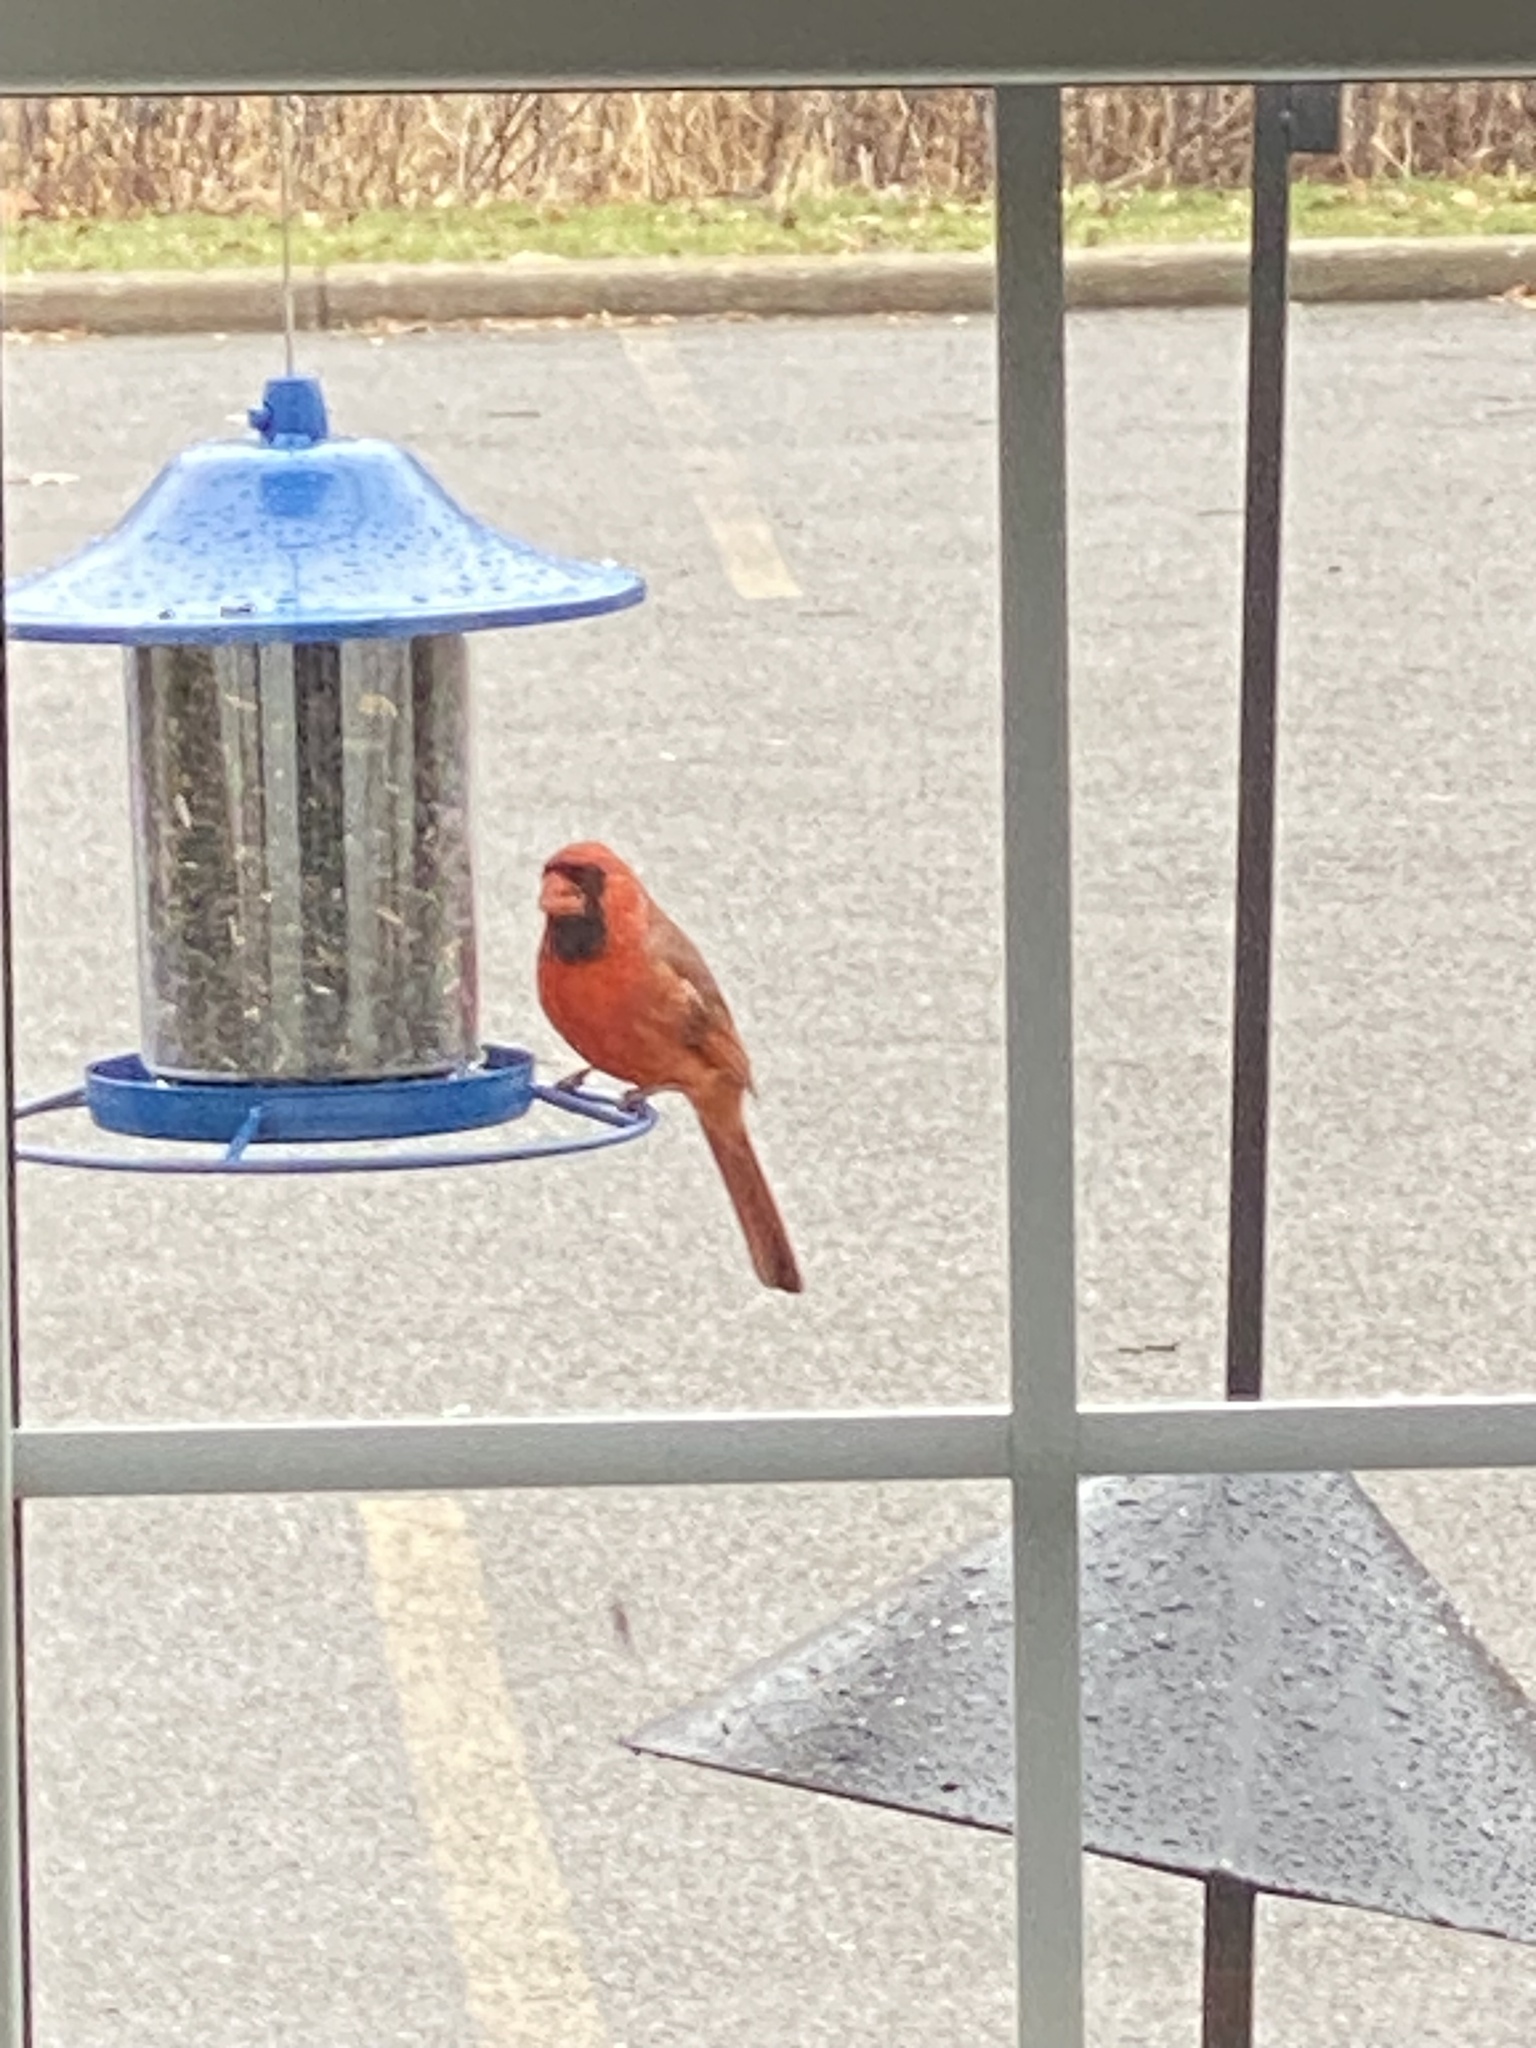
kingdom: Animalia
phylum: Chordata
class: Aves
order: Passeriformes
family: Cardinalidae
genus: Cardinalis
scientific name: Cardinalis cardinalis
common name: Northern cardinal
